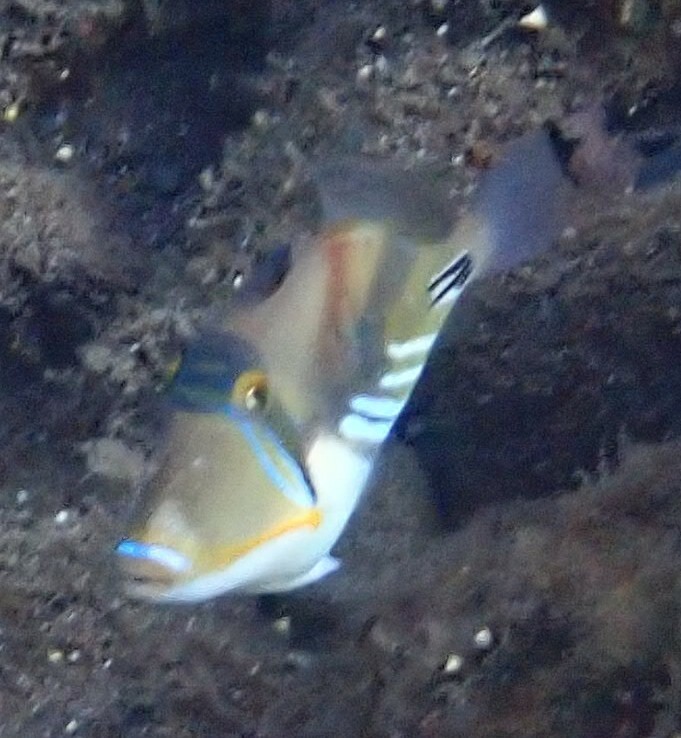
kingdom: Animalia
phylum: Chordata
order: Tetraodontiformes
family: Balistidae
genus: Rhinecanthus
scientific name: Rhinecanthus aculeatus
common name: White-banded triggerfish
